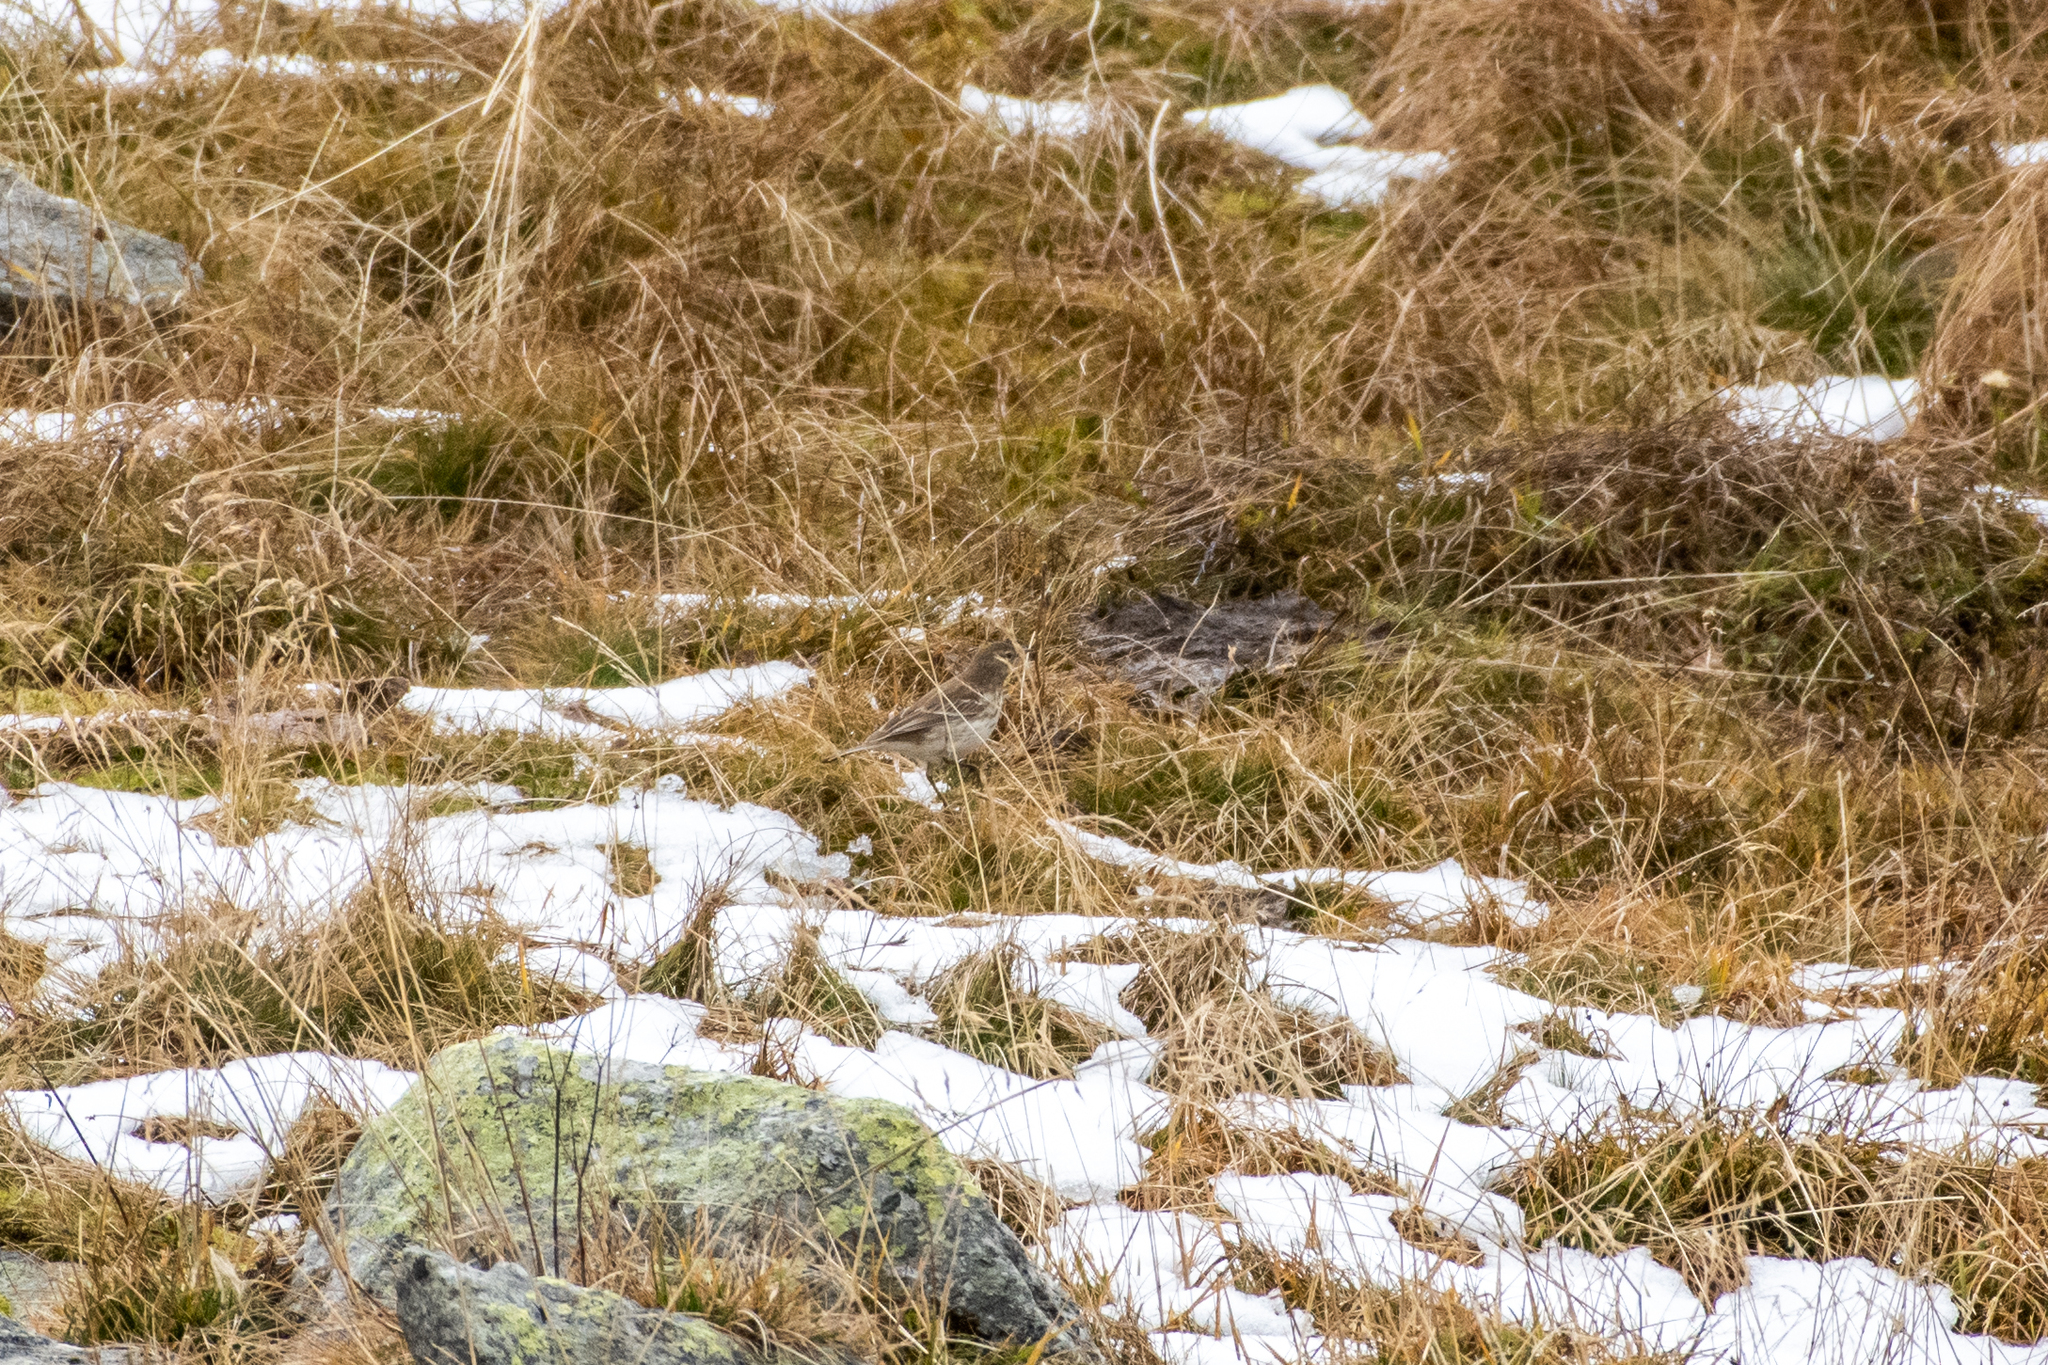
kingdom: Animalia
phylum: Chordata
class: Aves
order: Passeriformes
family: Motacillidae
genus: Anthus
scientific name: Anthus spinoletta
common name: Water pipit
